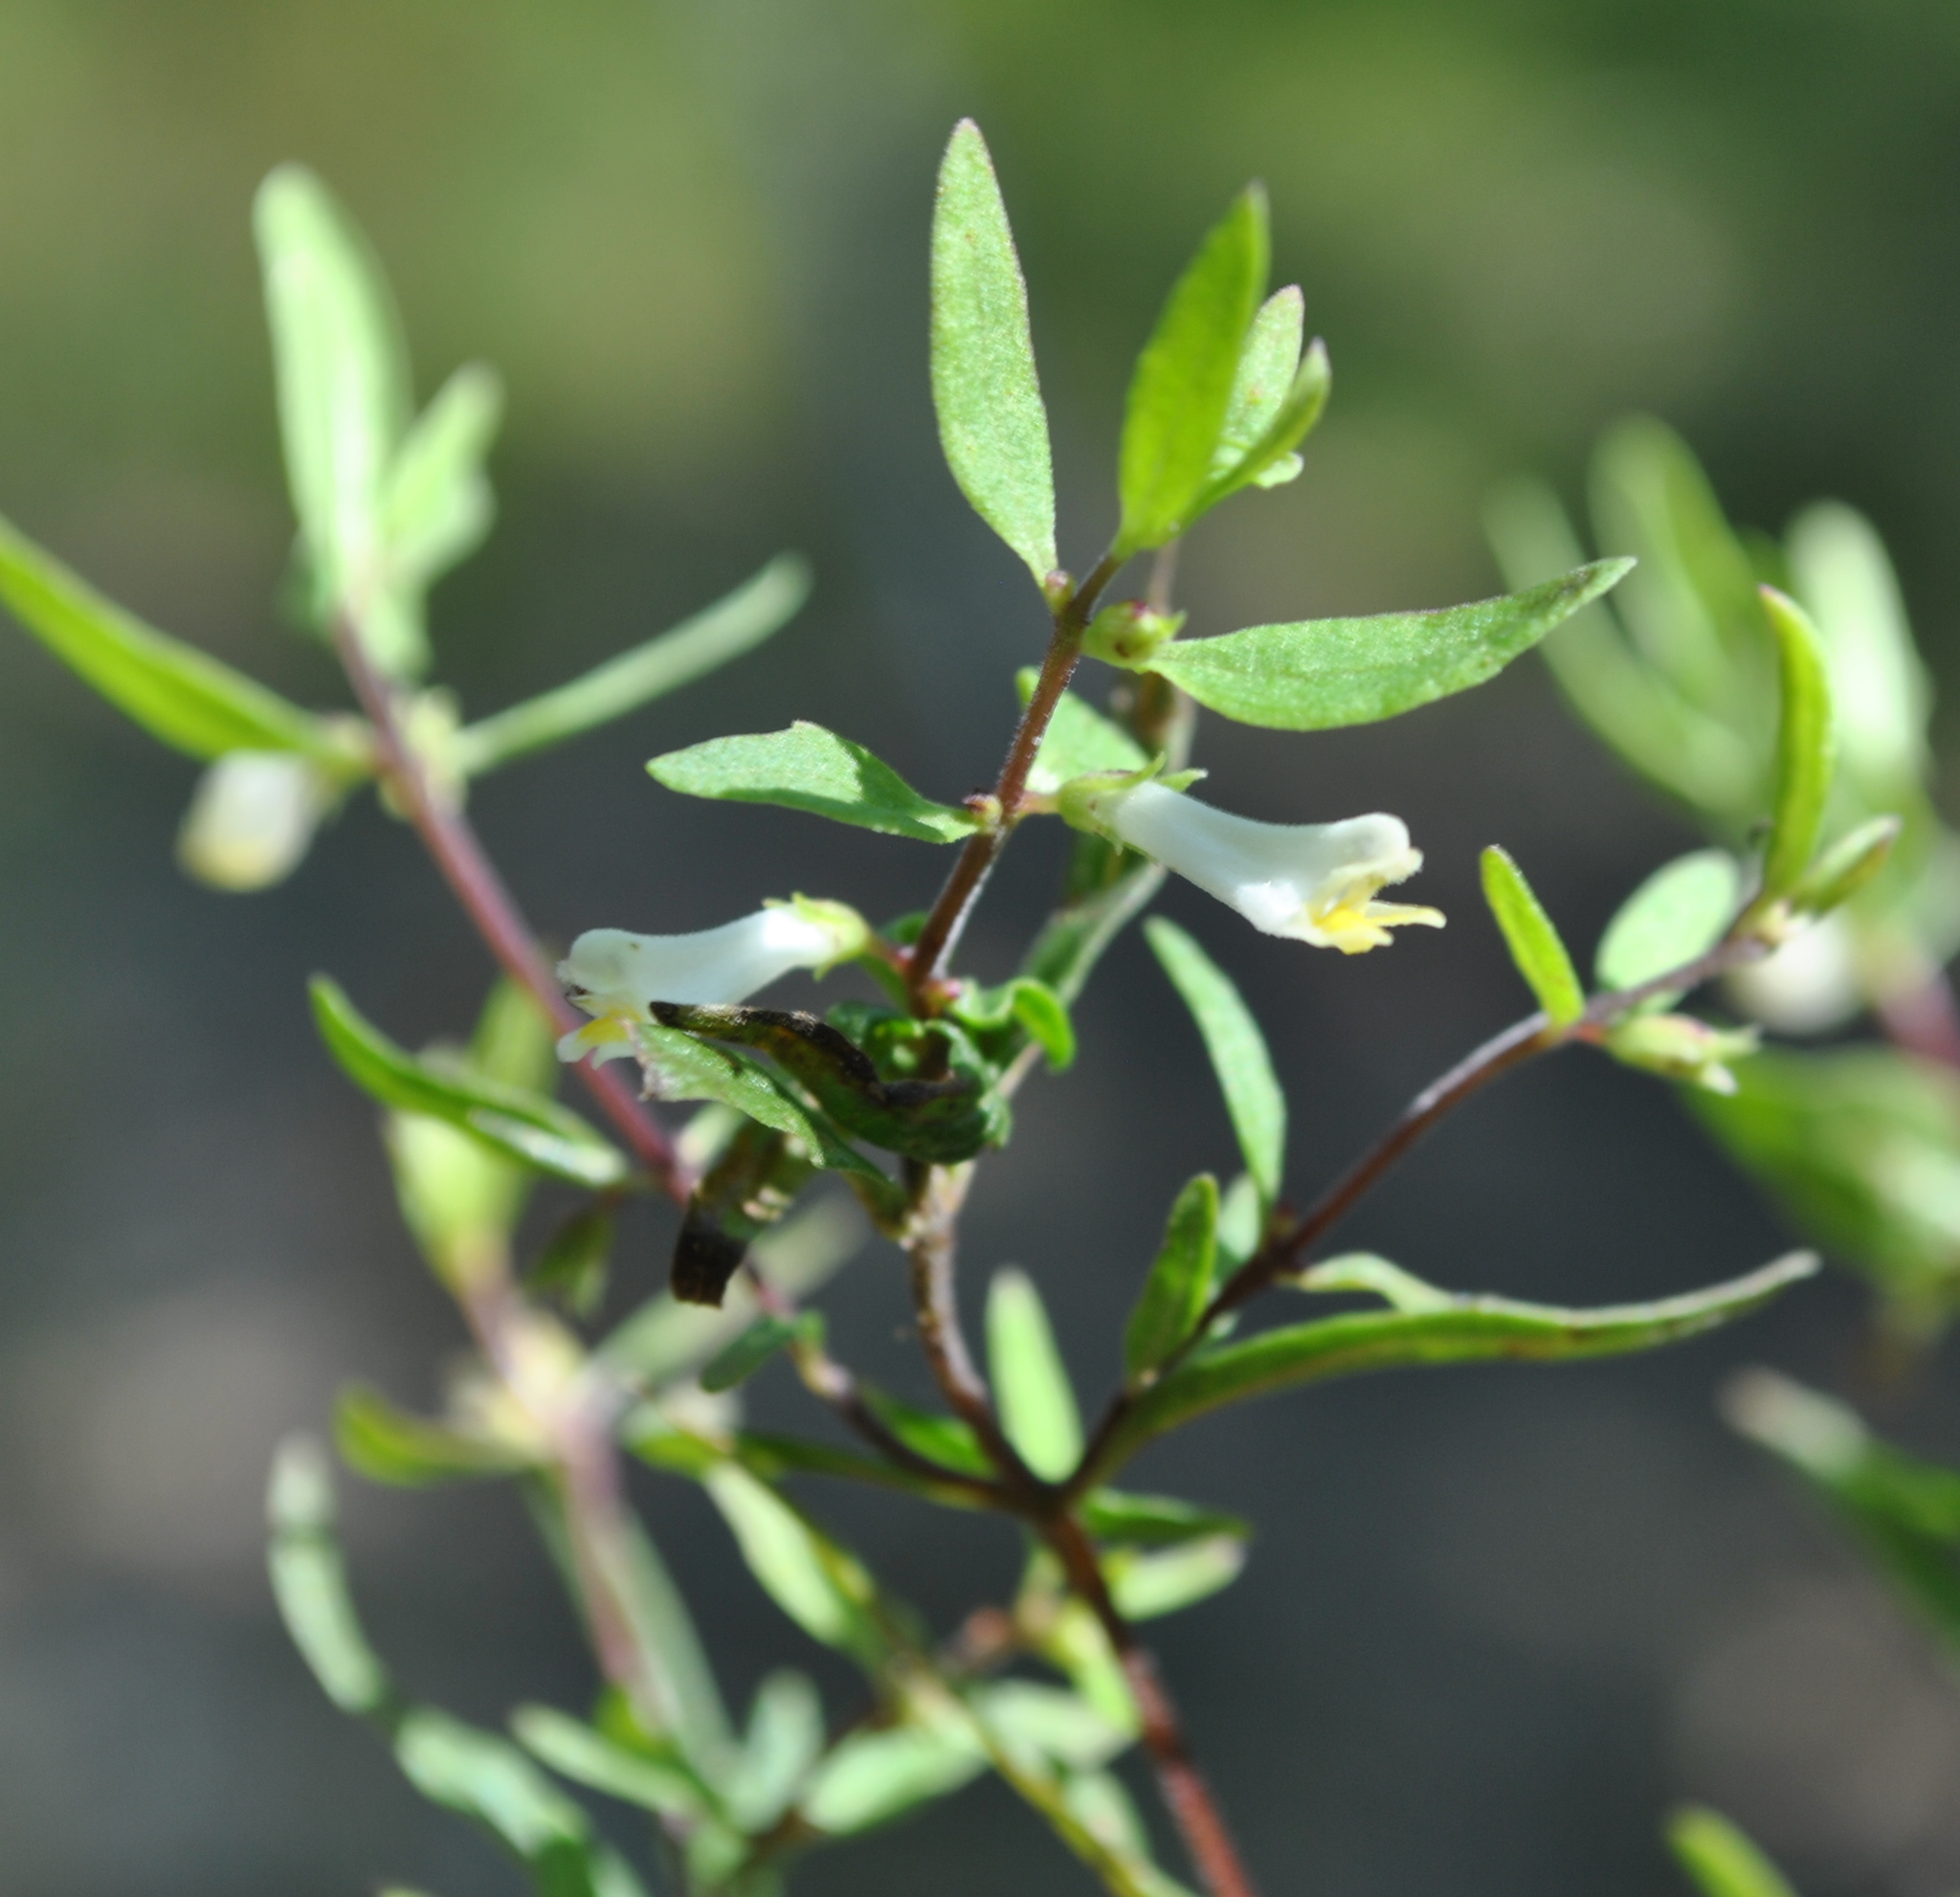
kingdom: Plantae
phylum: Tracheophyta
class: Magnoliopsida
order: Lamiales
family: Orobanchaceae
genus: Melampyrum
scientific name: Melampyrum lineare
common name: American cow-wheat
